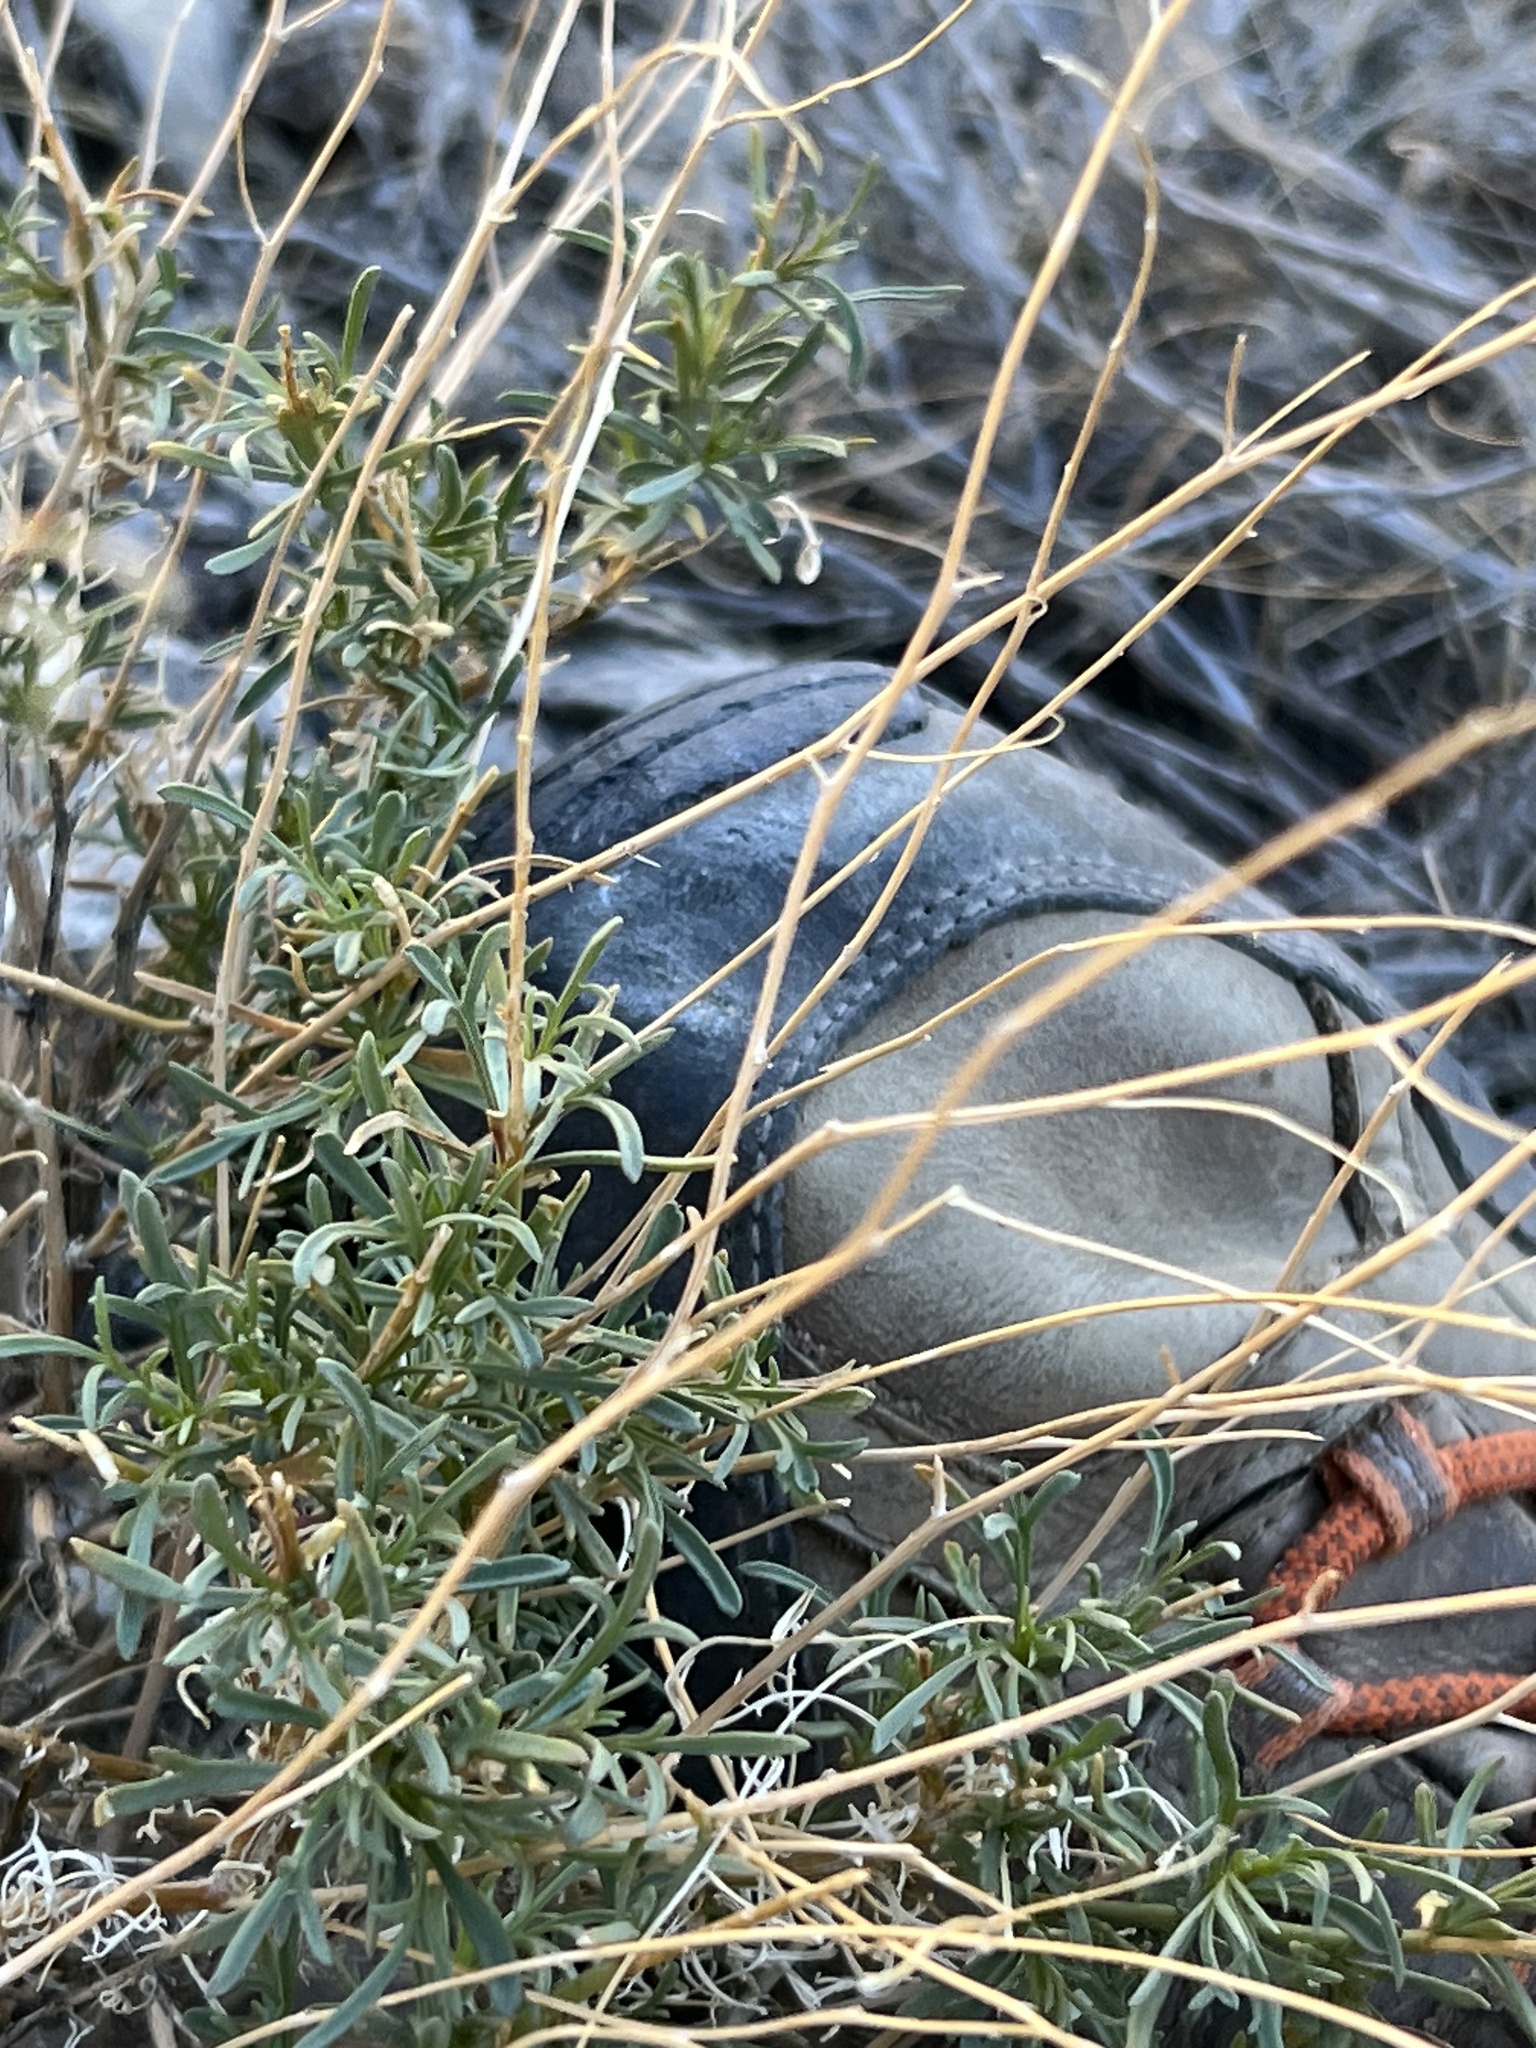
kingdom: Plantae
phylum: Tracheophyta
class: Magnoliopsida
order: Asterales
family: Asteraceae
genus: Pleurocoronis
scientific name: Pleurocoronis pluriseta
